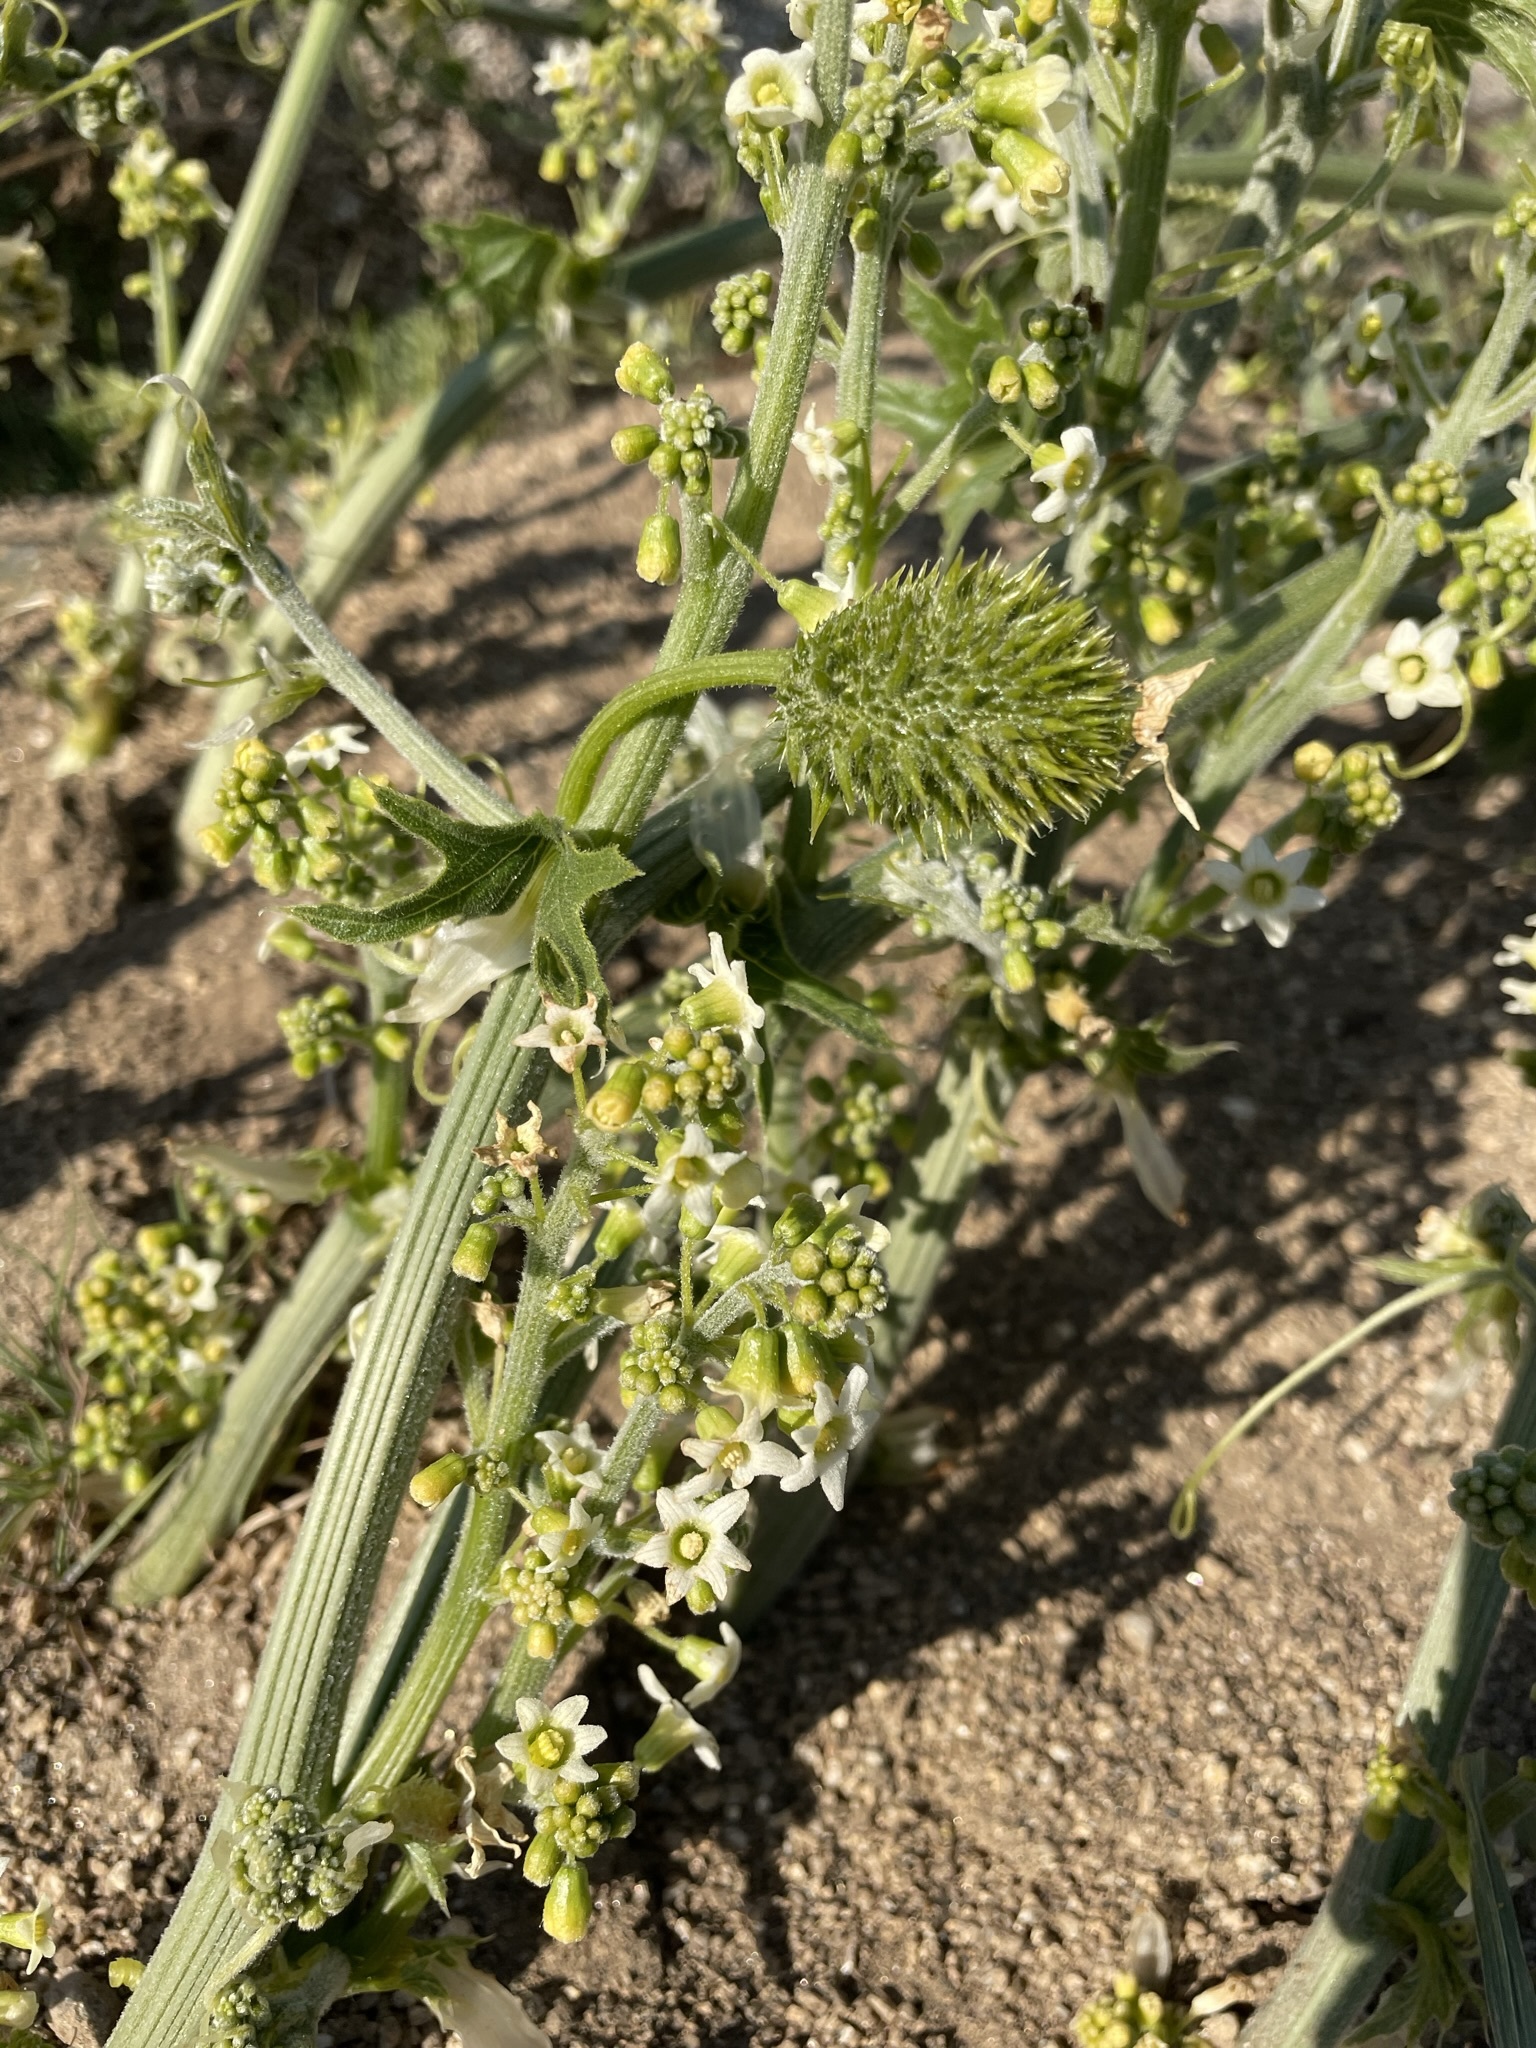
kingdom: Plantae
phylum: Tracheophyta
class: Magnoliopsida
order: Cucurbitales
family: Cucurbitaceae
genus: Marah
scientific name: Marah horrida
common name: Sierra manroot
